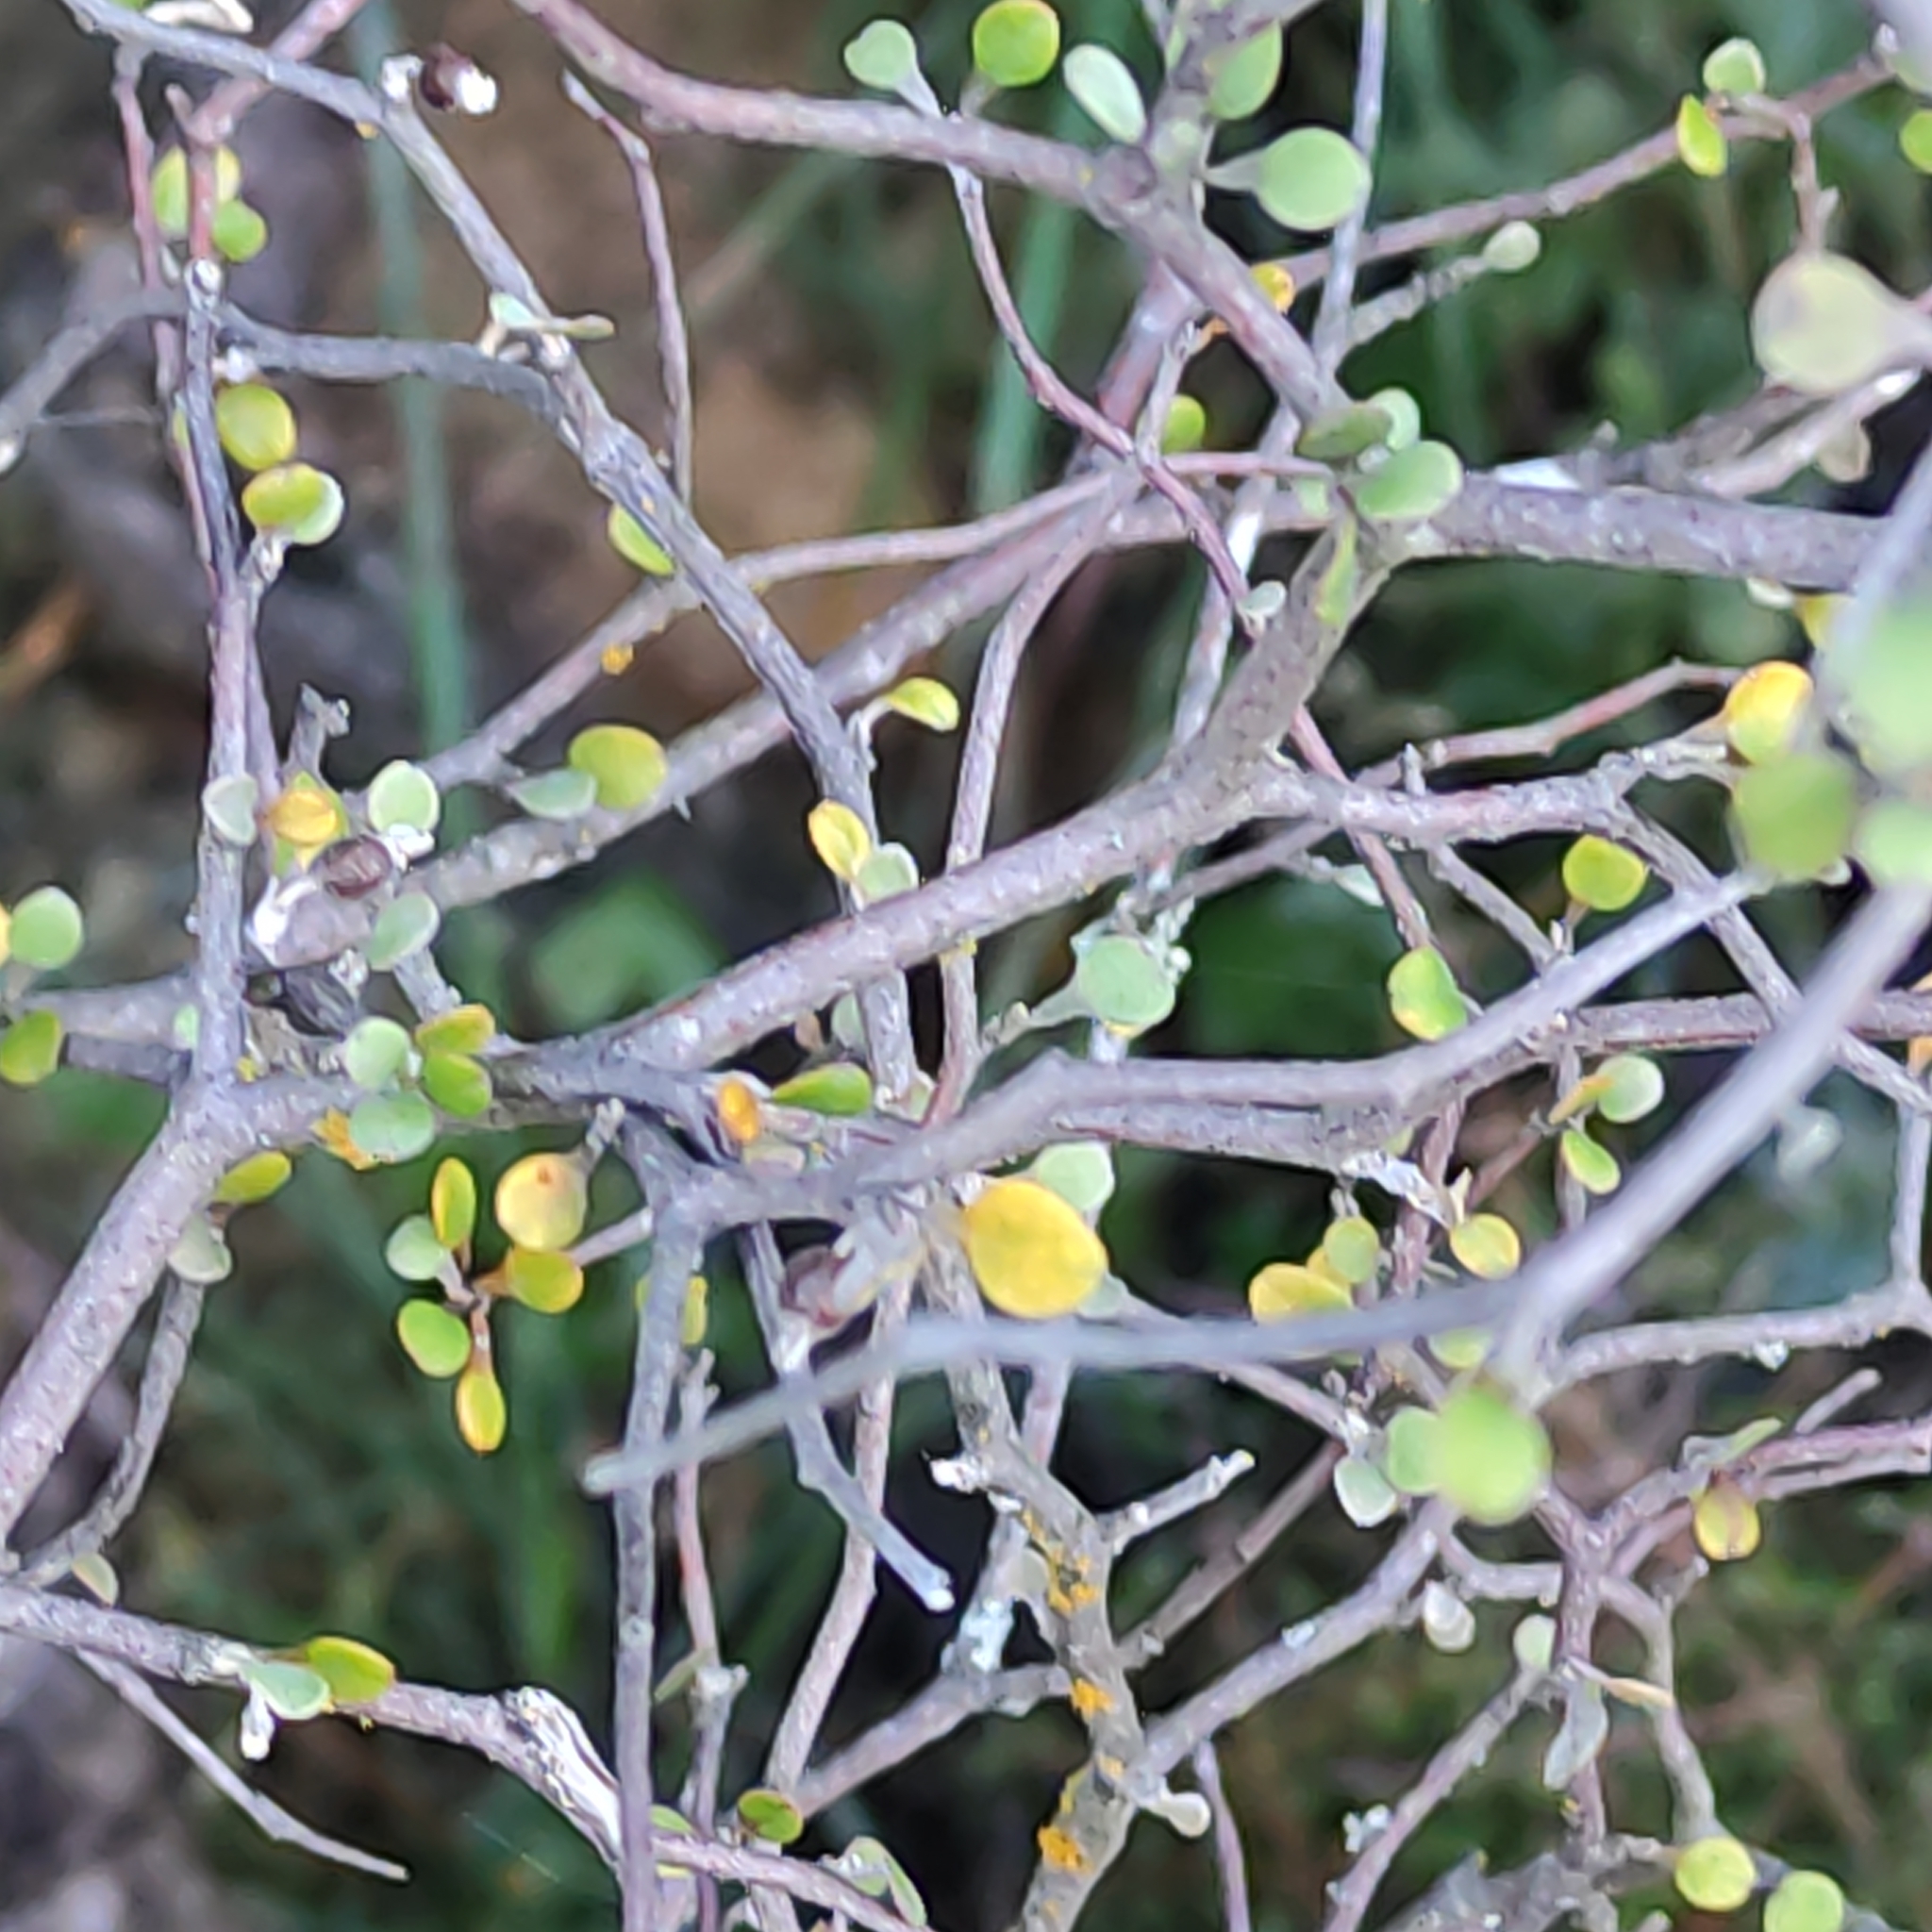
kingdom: Plantae
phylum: Tracheophyta
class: Magnoliopsida
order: Asterales
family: Argophyllaceae
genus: Corokia
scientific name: Corokia cotoneaster
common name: Wire nettingbush
